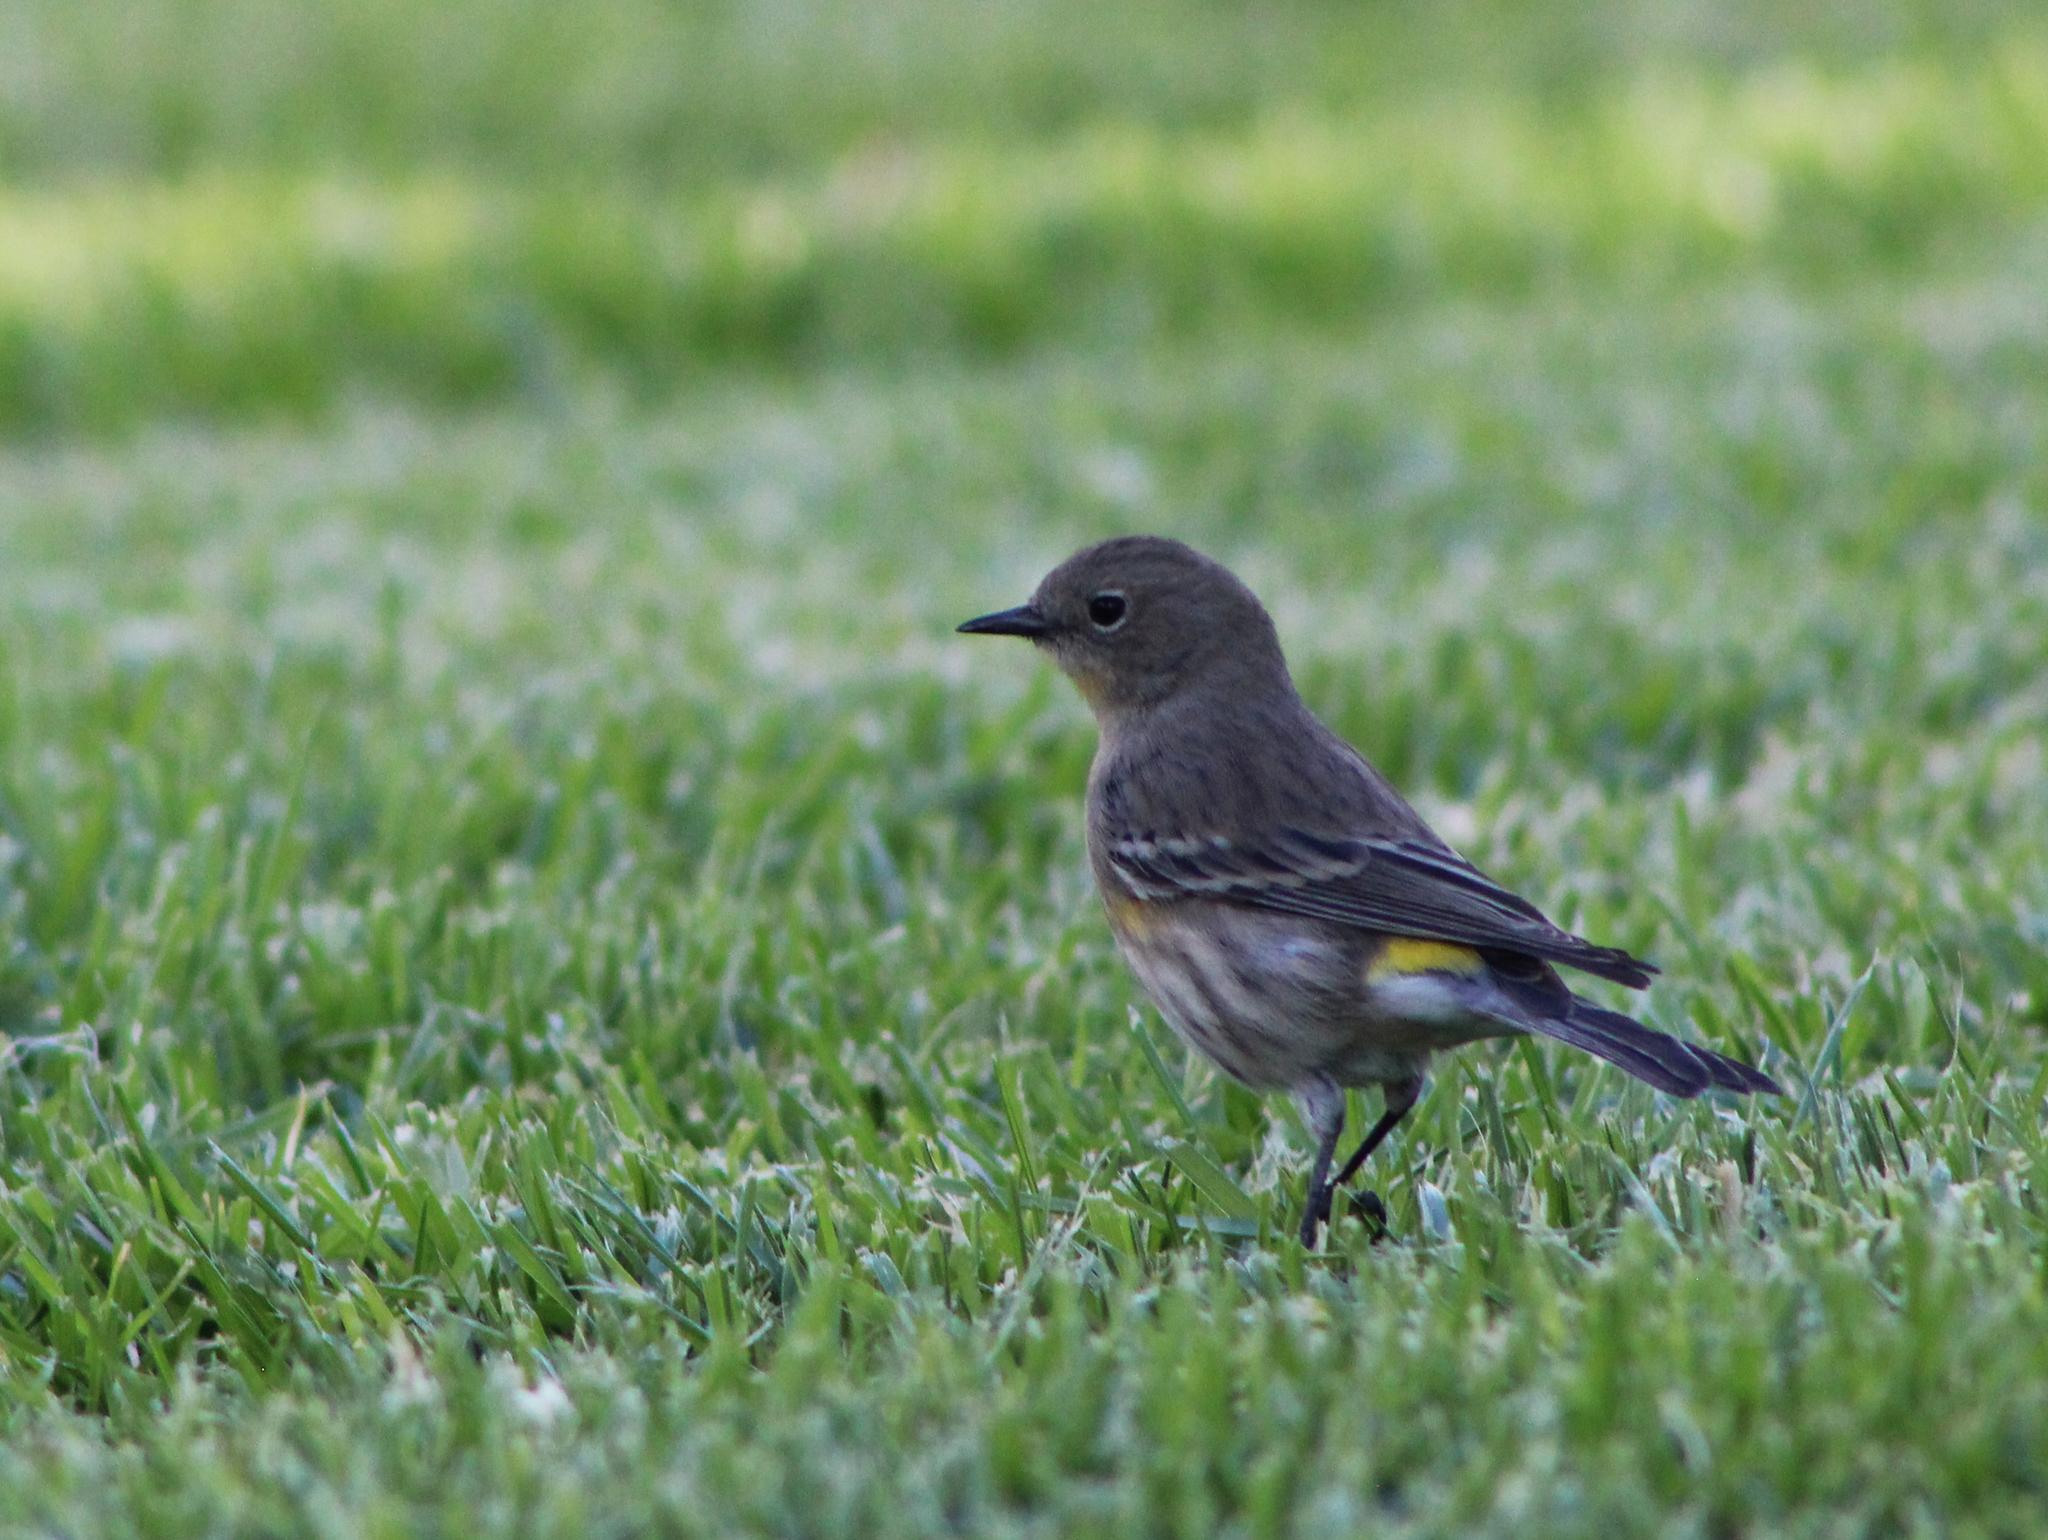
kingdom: Animalia
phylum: Chordata
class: Aves
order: Passeriformes
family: Parulidae
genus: Setophaga
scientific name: Setophaga coronata
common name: Myrtle warbler
